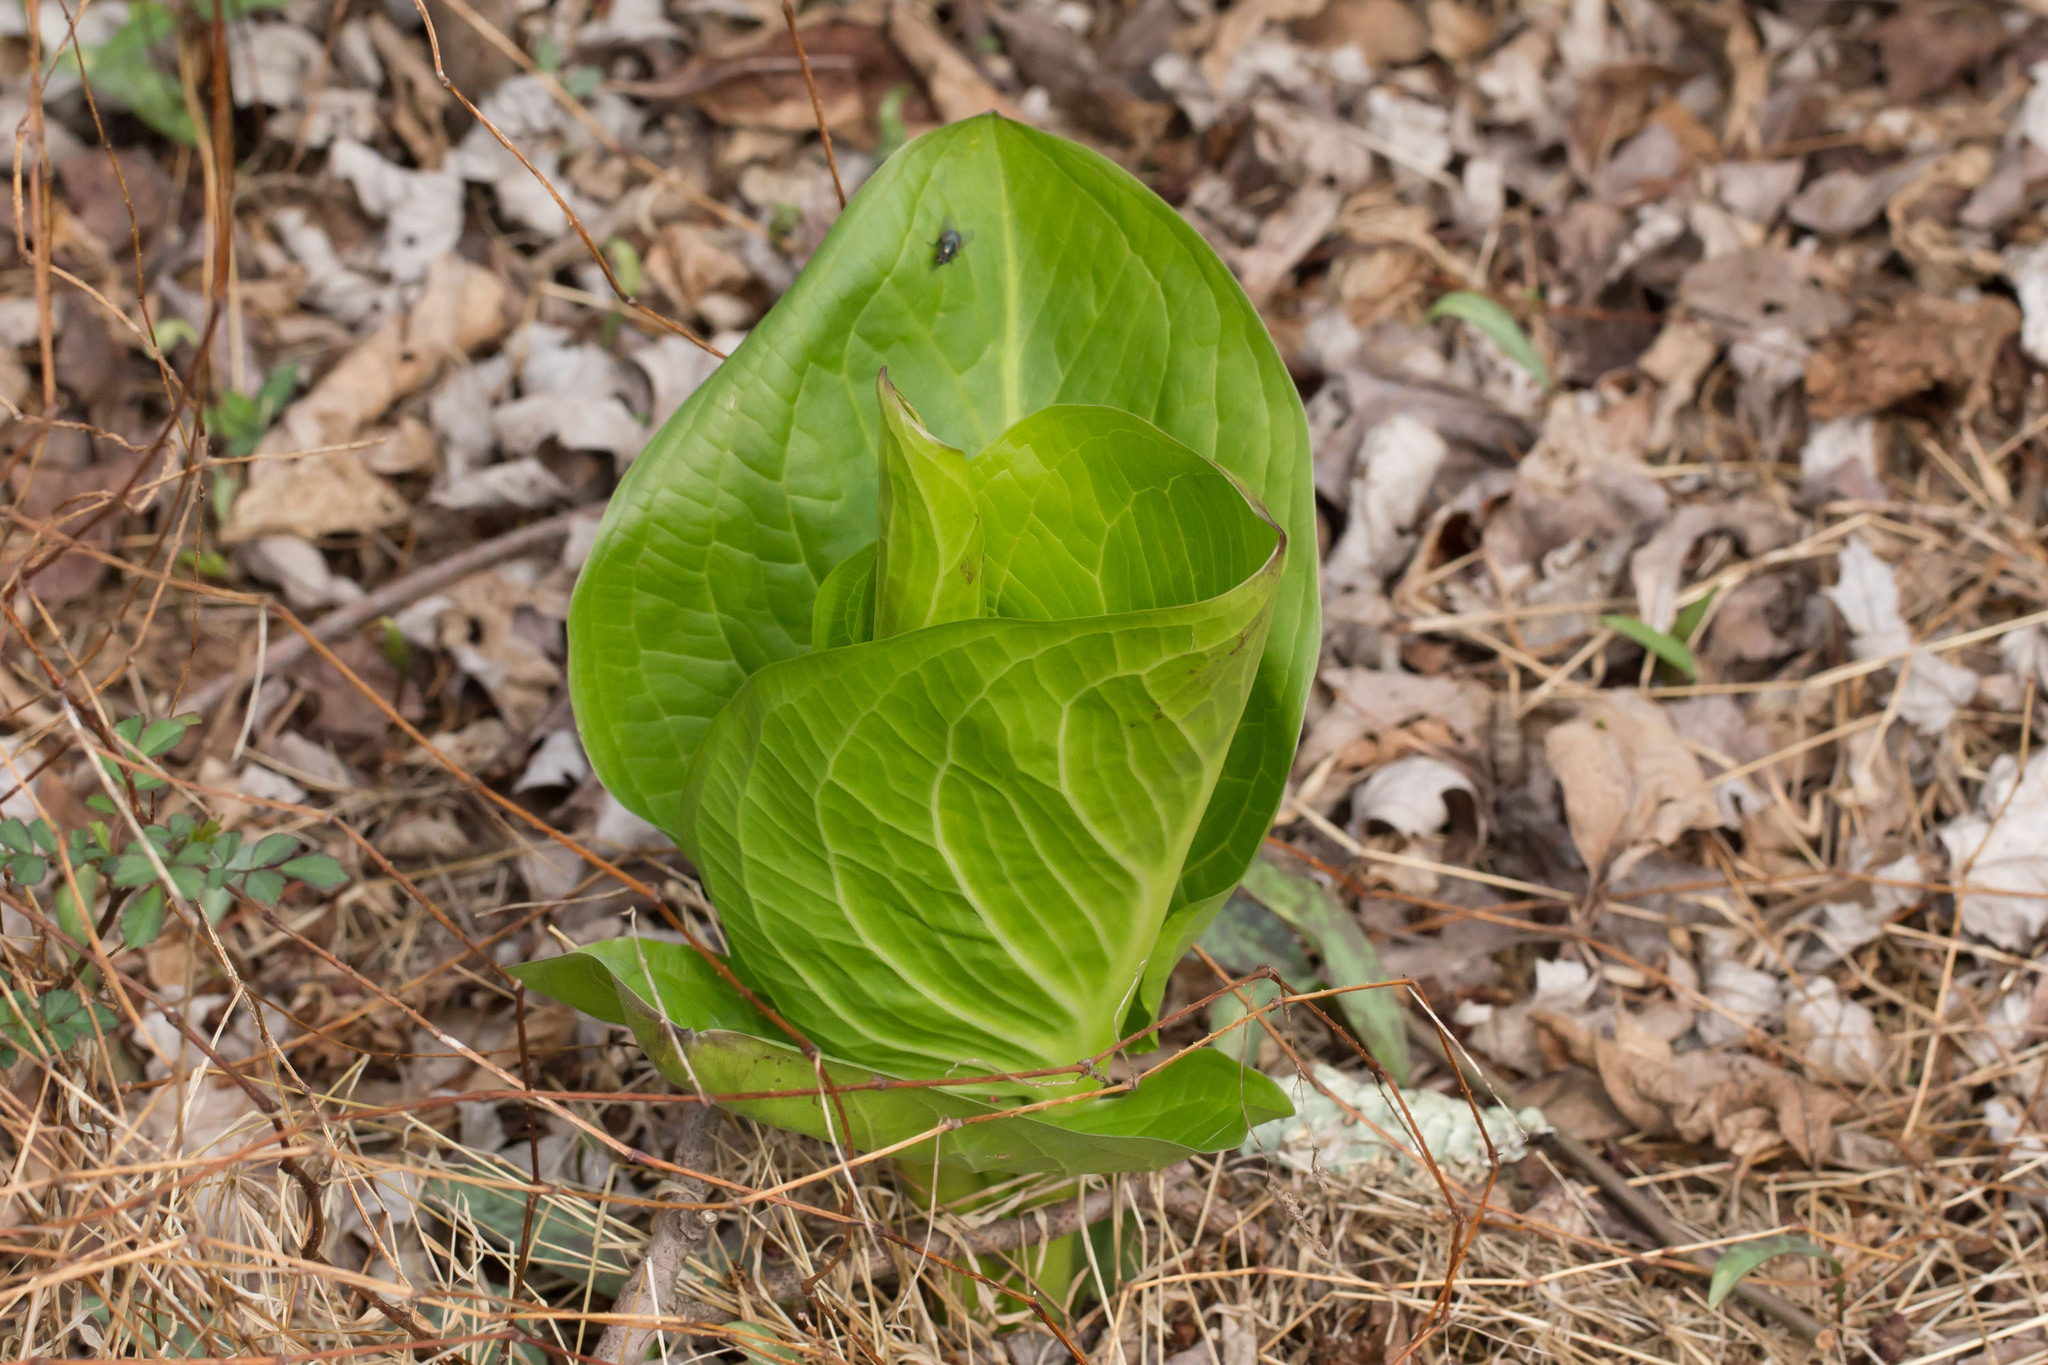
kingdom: Plantae
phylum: Tracheophyta
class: Liliopsida
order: Alismatales
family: Araceae
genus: Symplocarpus
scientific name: Symplocarpus foetidus
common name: Eastern skunk cabbage
